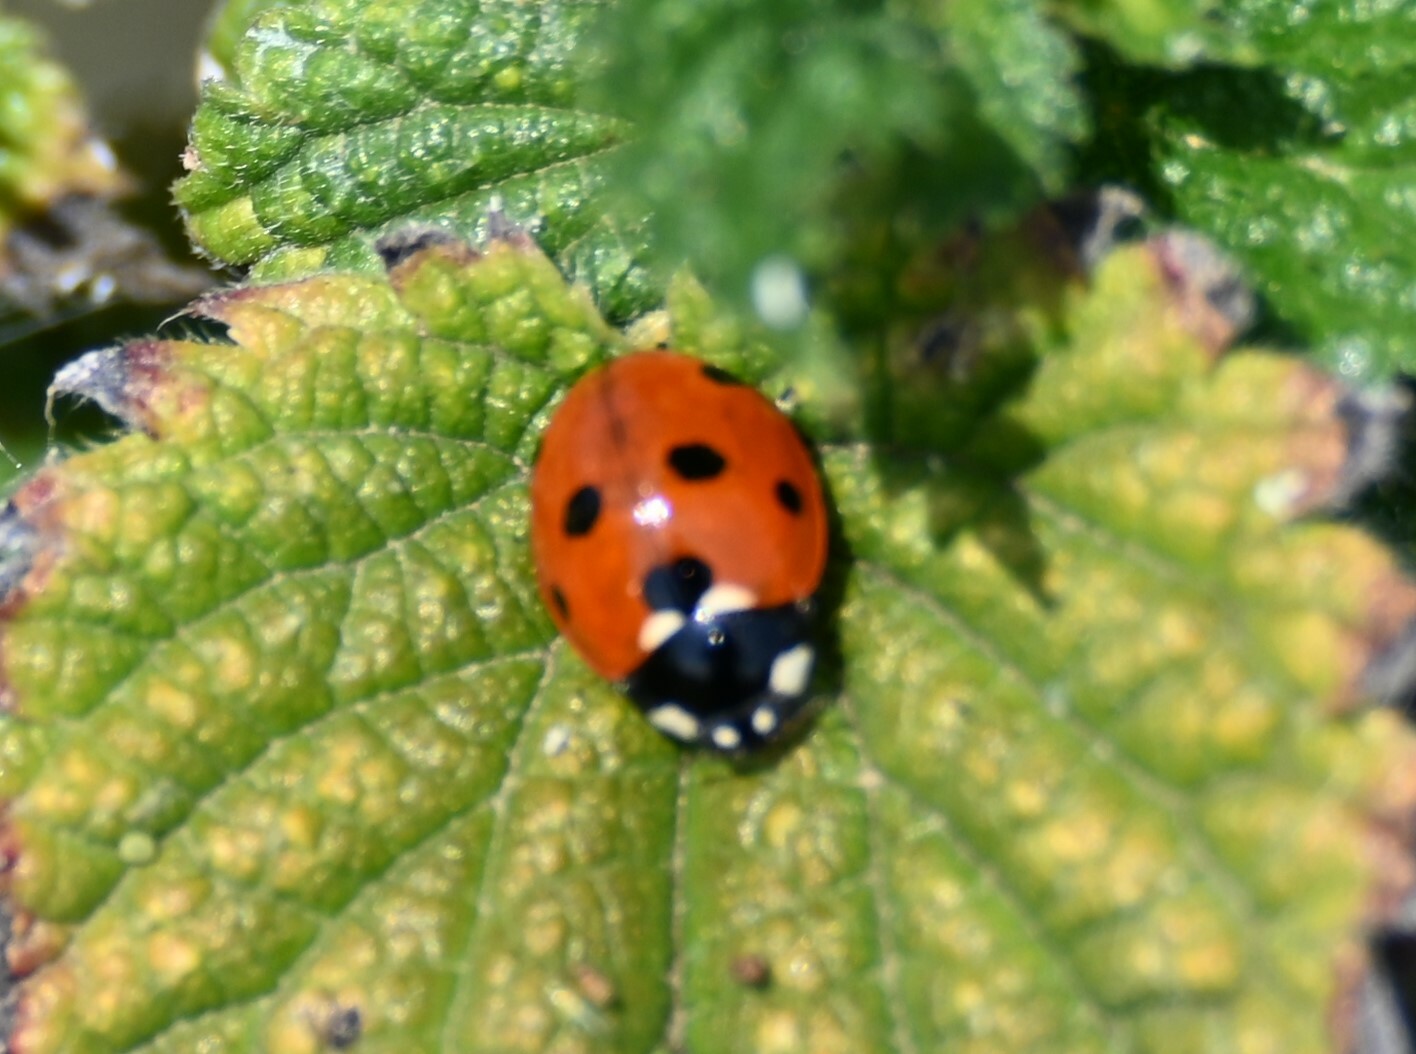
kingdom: Animalia
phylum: Arthropoda
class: Insecta
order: Coleoptera
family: Coccinellidae
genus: Coccinella
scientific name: Coccinella septempunctata
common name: Sevenspotted lady beetle
